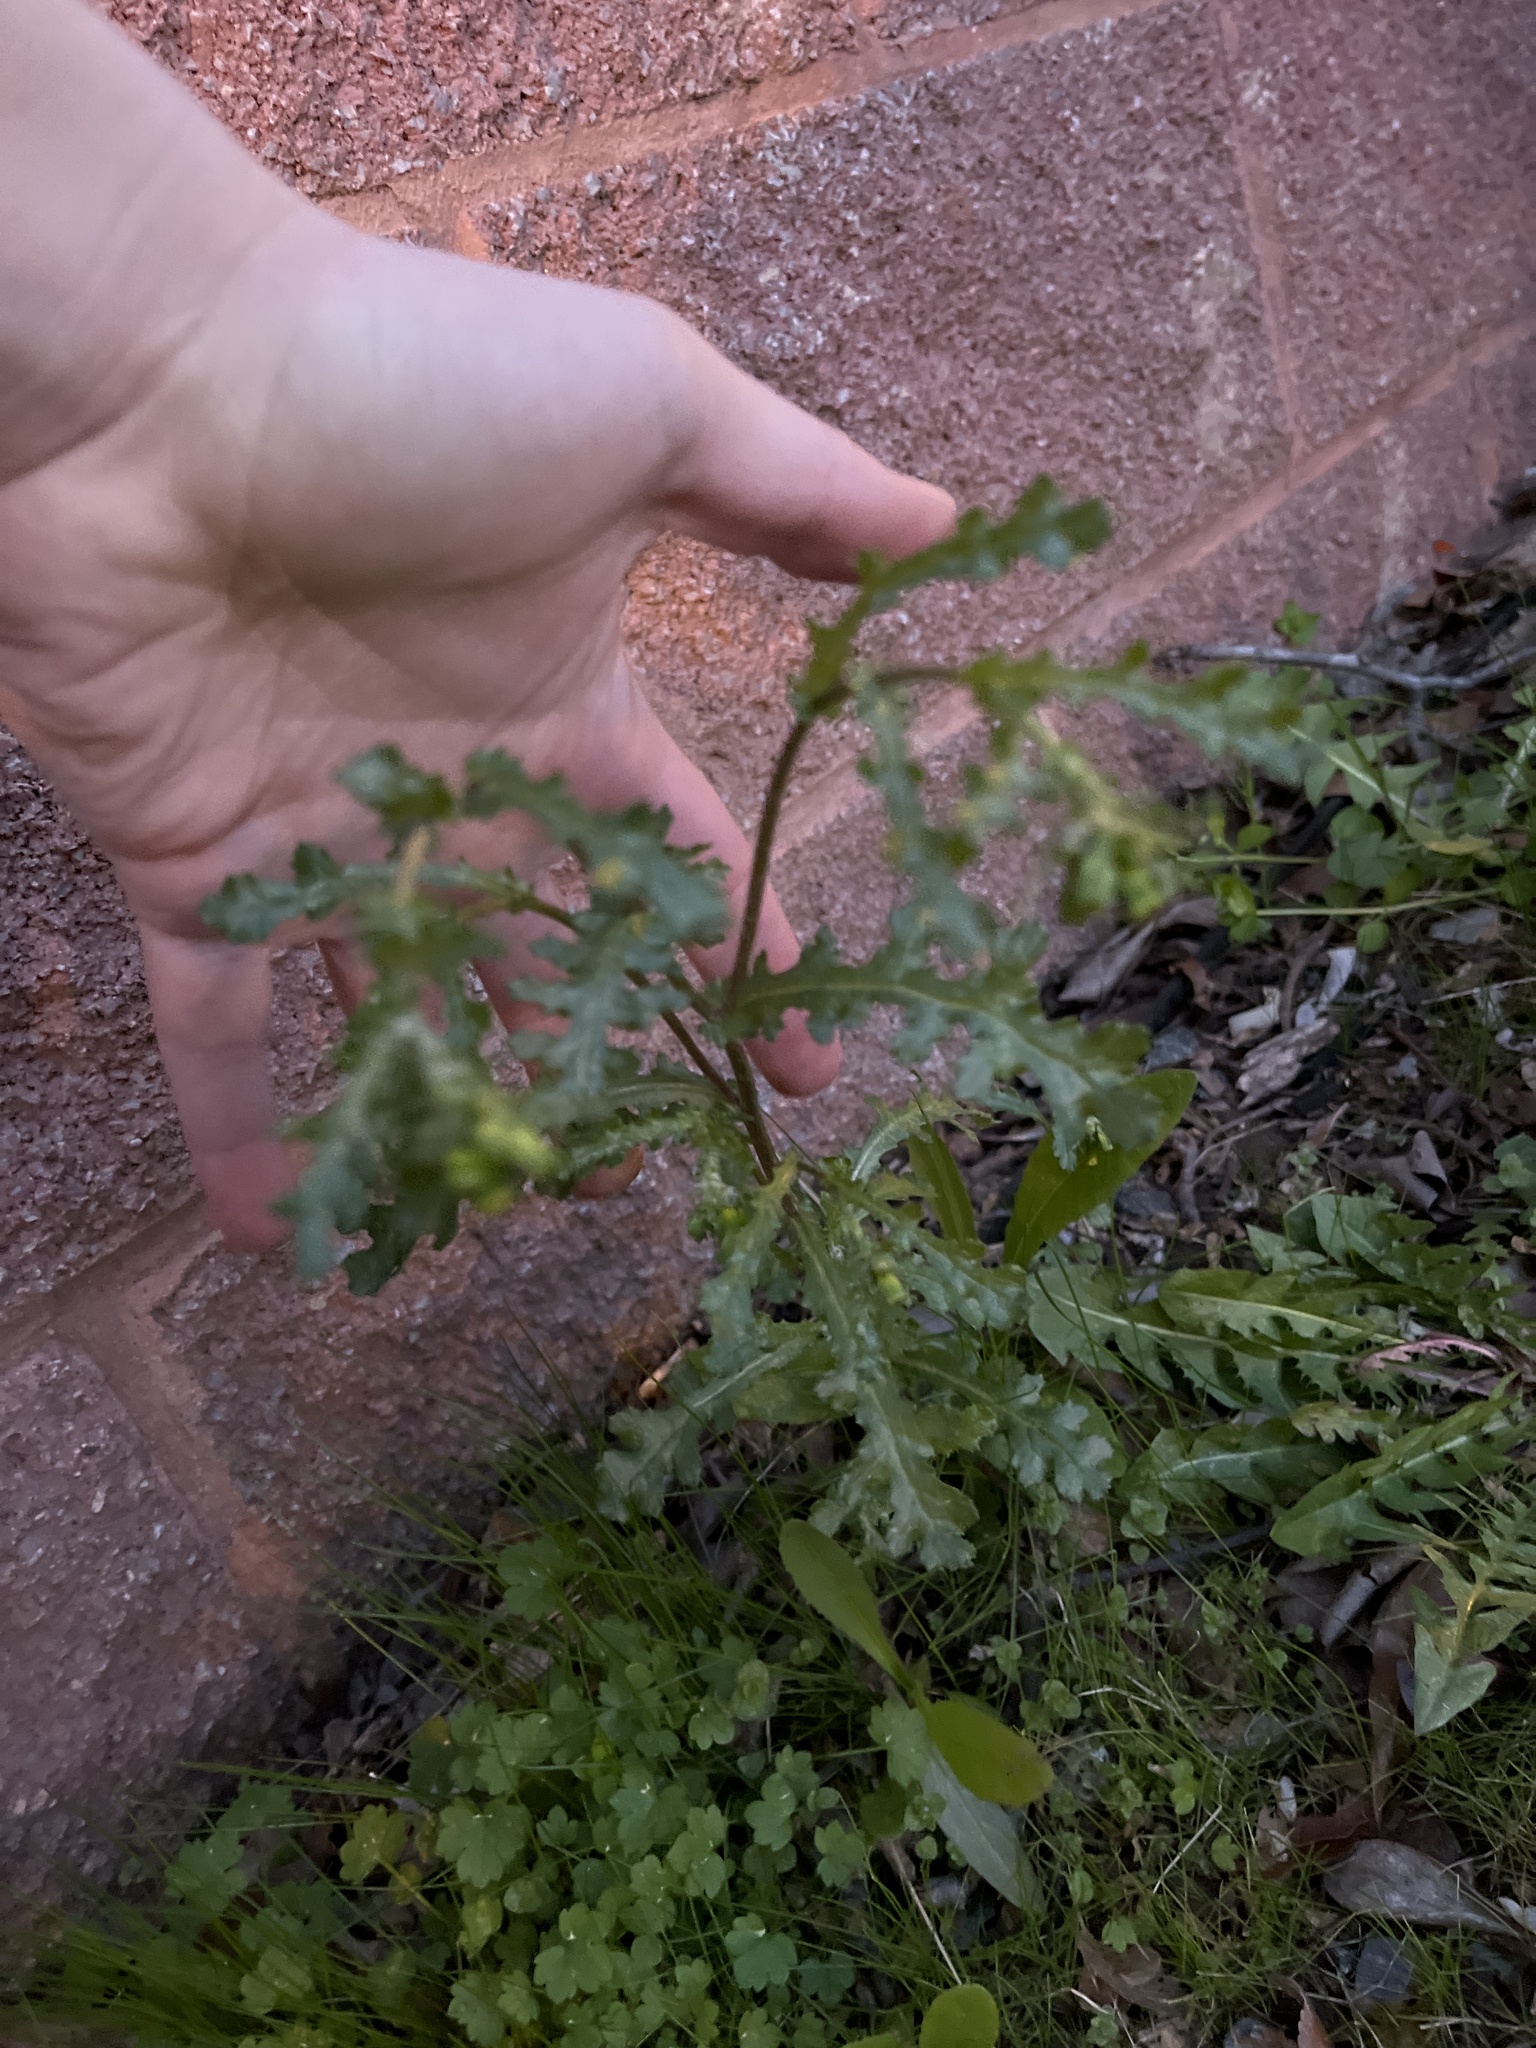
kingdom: Plantae
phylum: Tracheophyta
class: Magnoliopsida
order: Asterales
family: Asteraceae
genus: Senecio
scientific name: Senecio vulgaris
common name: Old-man-in-the-spring
